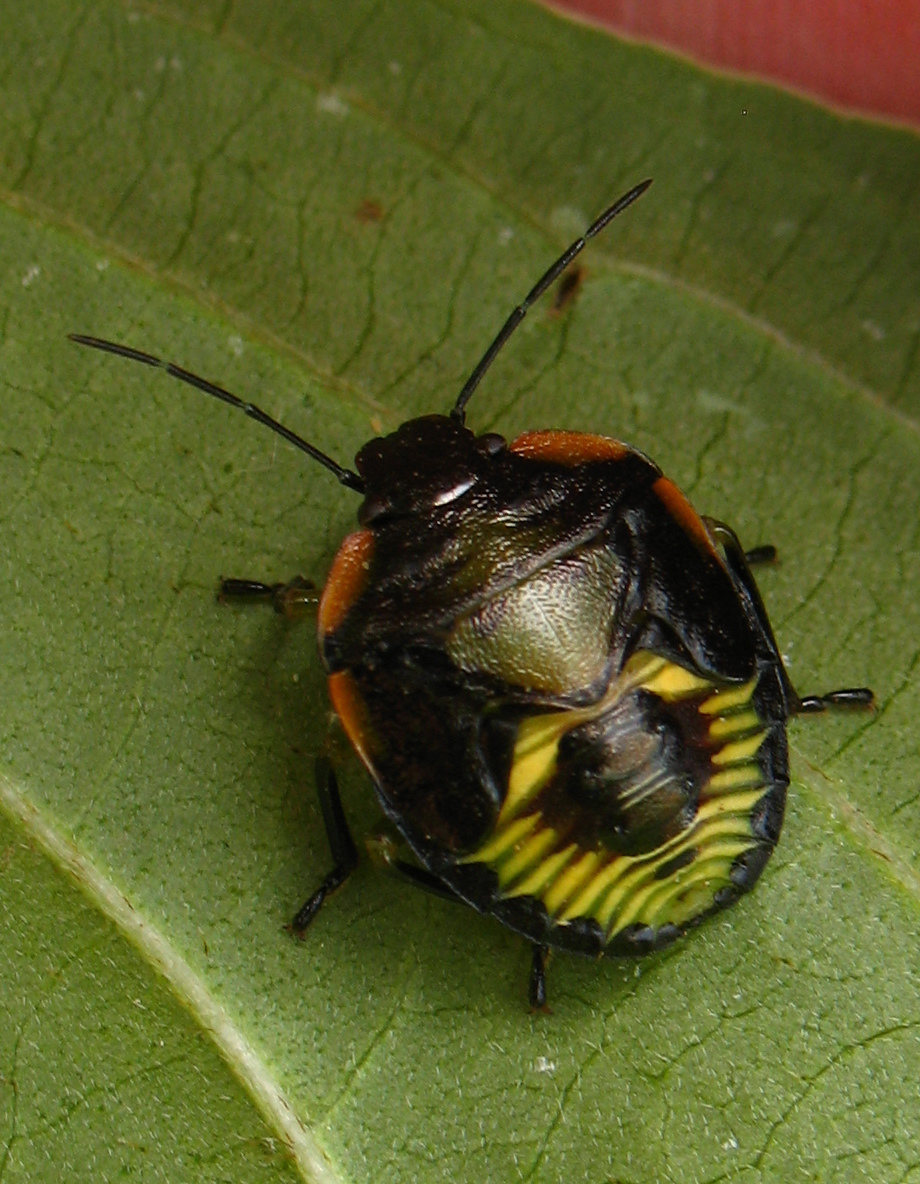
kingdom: Animalia
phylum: Arthropoda
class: Insecta
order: Hemiptera
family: Pentatomidae
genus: Chinavia
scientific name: Chinavia hilaris
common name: Green stink bug
